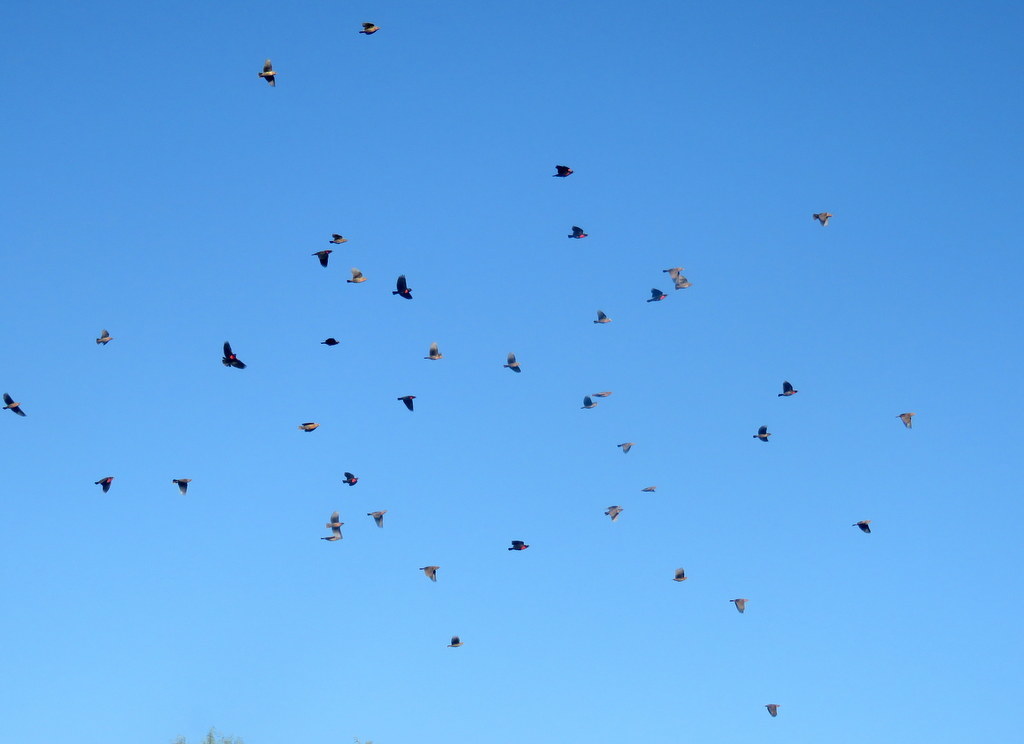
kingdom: Animalia
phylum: Chordata
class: Aves
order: Passeriformes
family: Icteridae
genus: Sturnella
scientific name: Sturnella superciliaris
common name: White-browed blackbird
